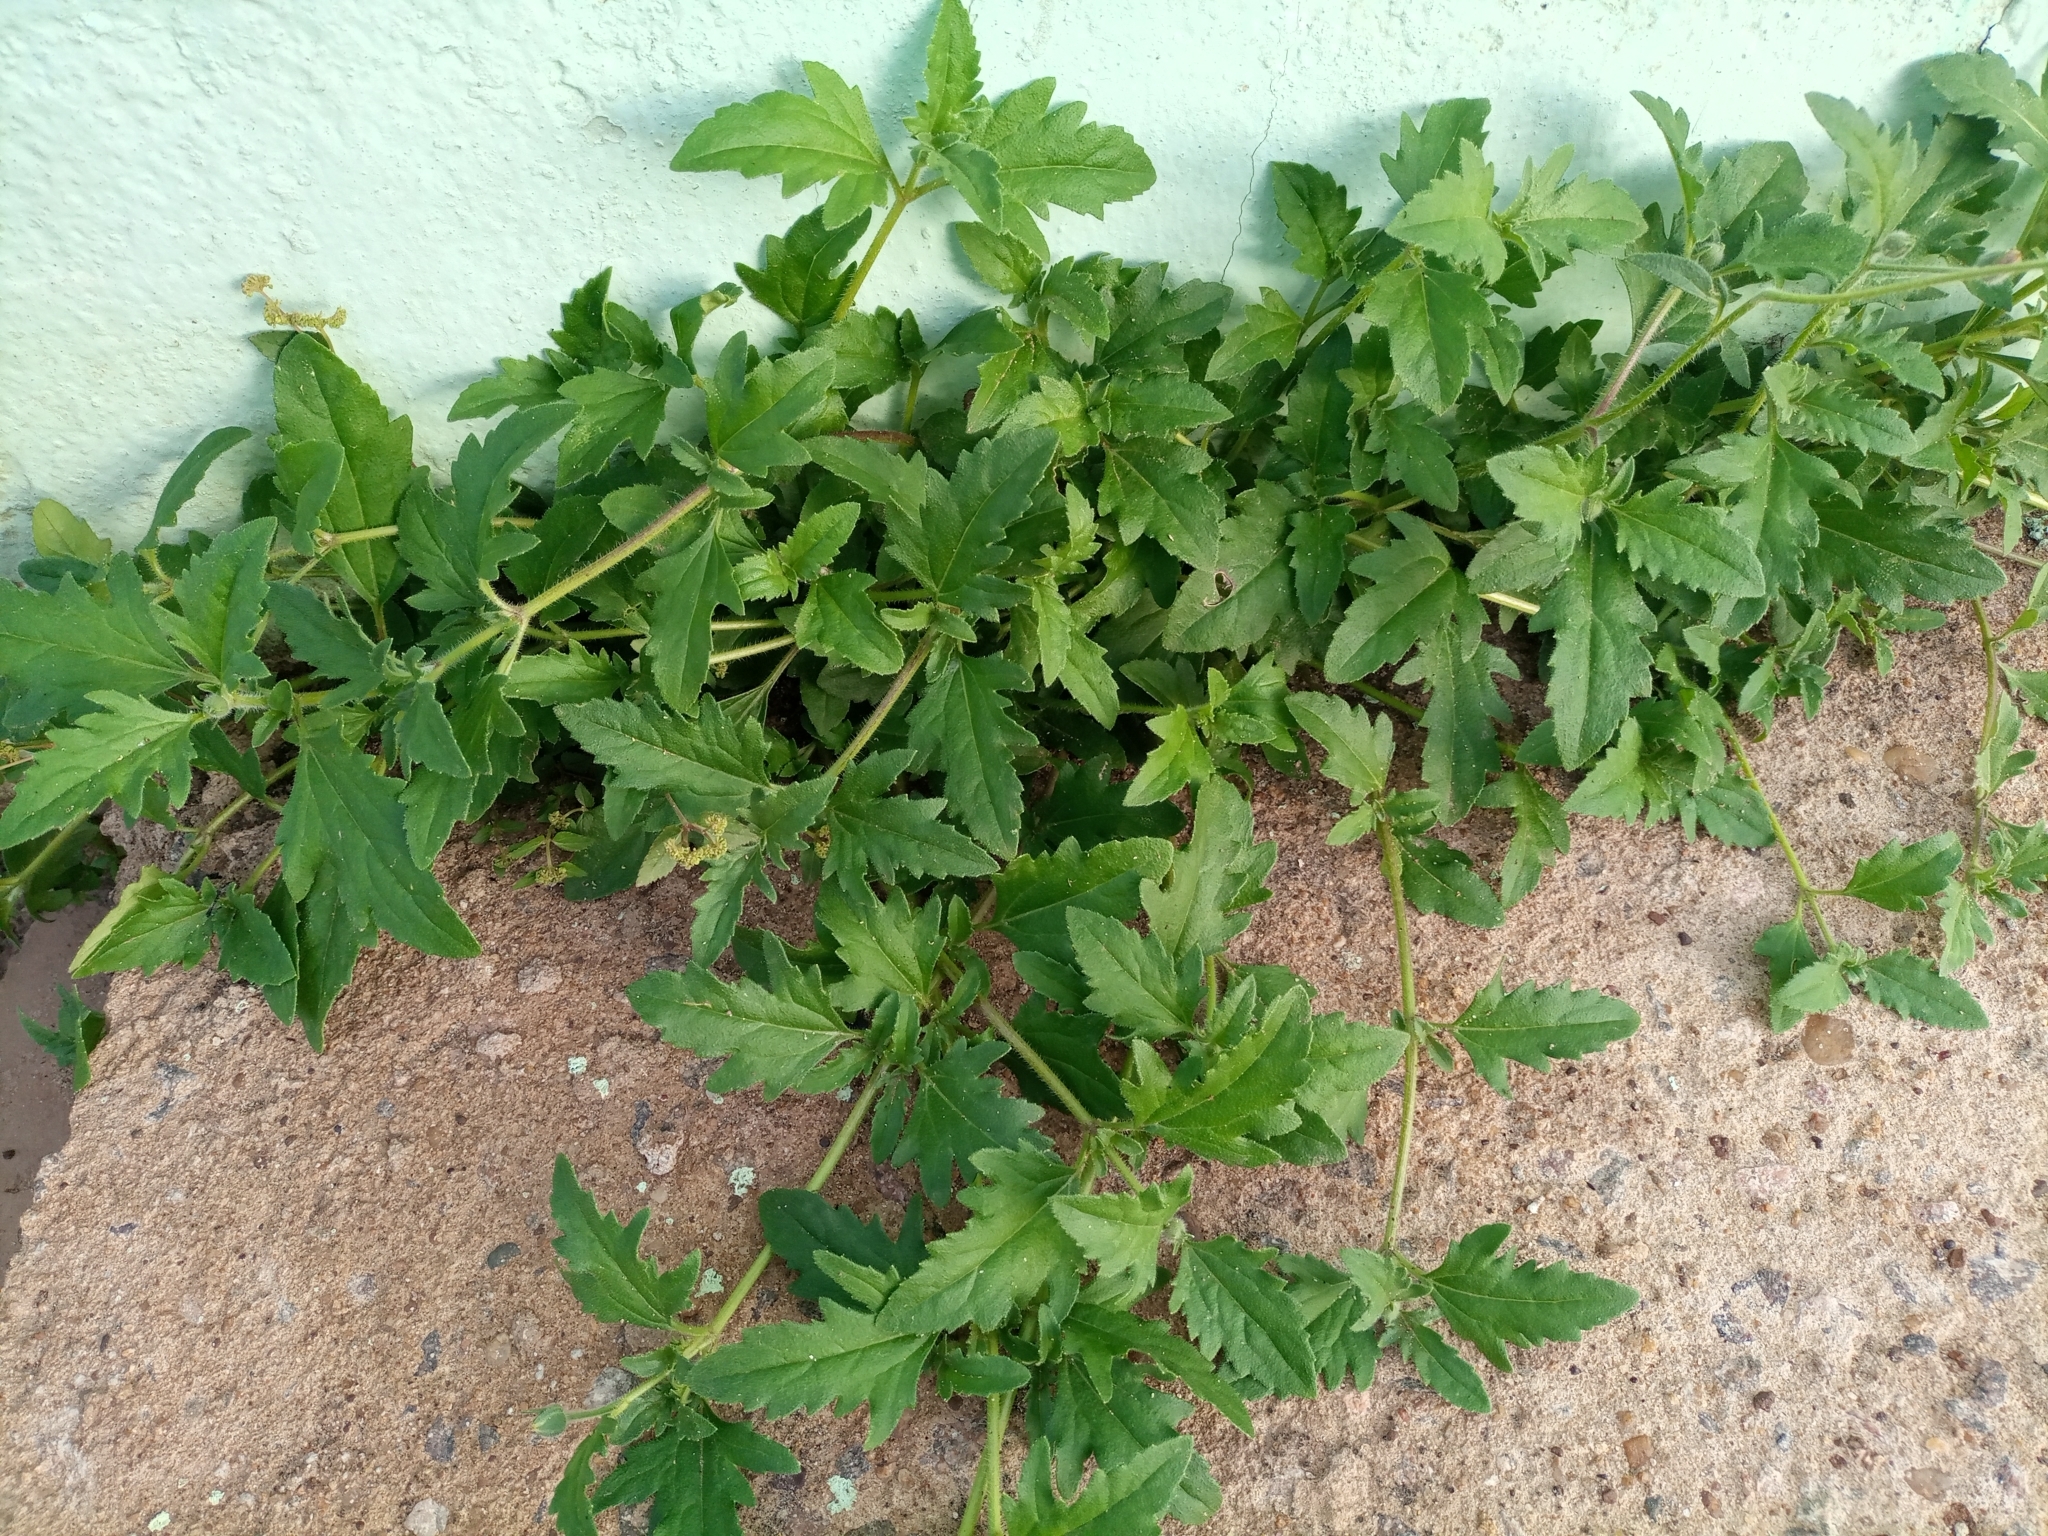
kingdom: Plantae
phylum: Tracheophyta
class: Magnoliopsida
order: Asterales
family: Asteraceae
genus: Tridax
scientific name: Tridax procumbens
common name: Coatbuttons
